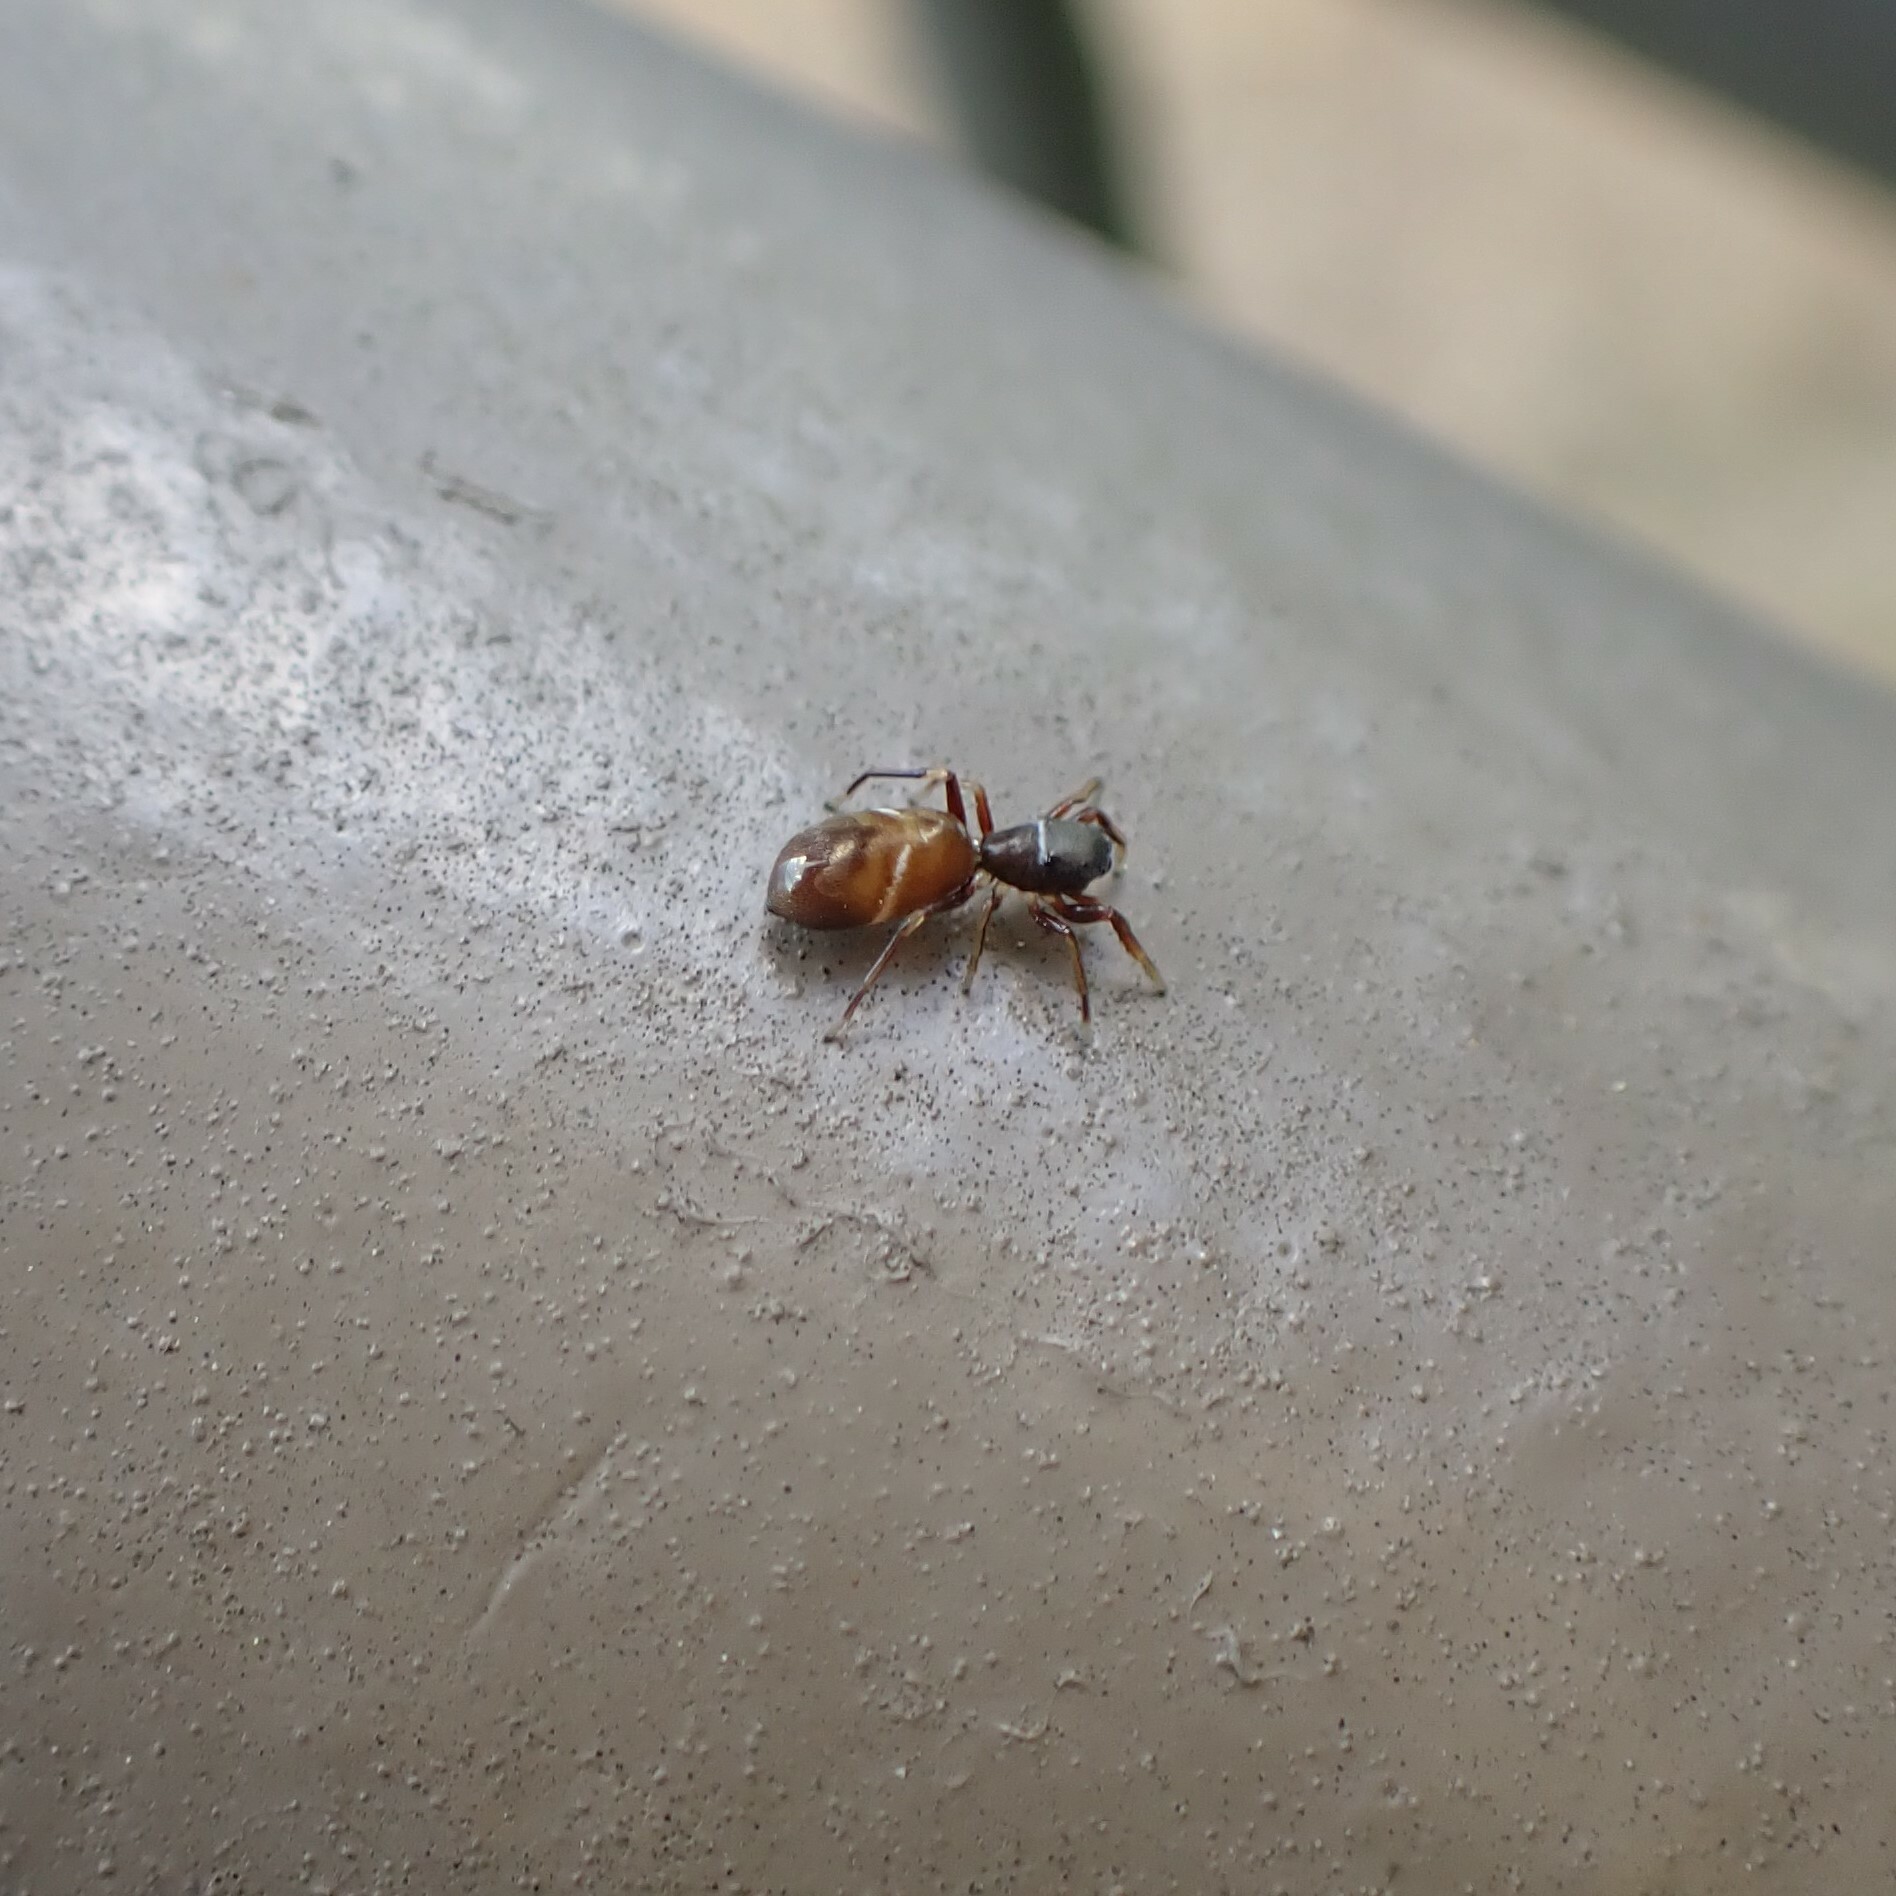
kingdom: Animalia
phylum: Arthropoda
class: Arachnida
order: Araneae
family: Salticidae
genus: Synageles
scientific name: Synageles venator
